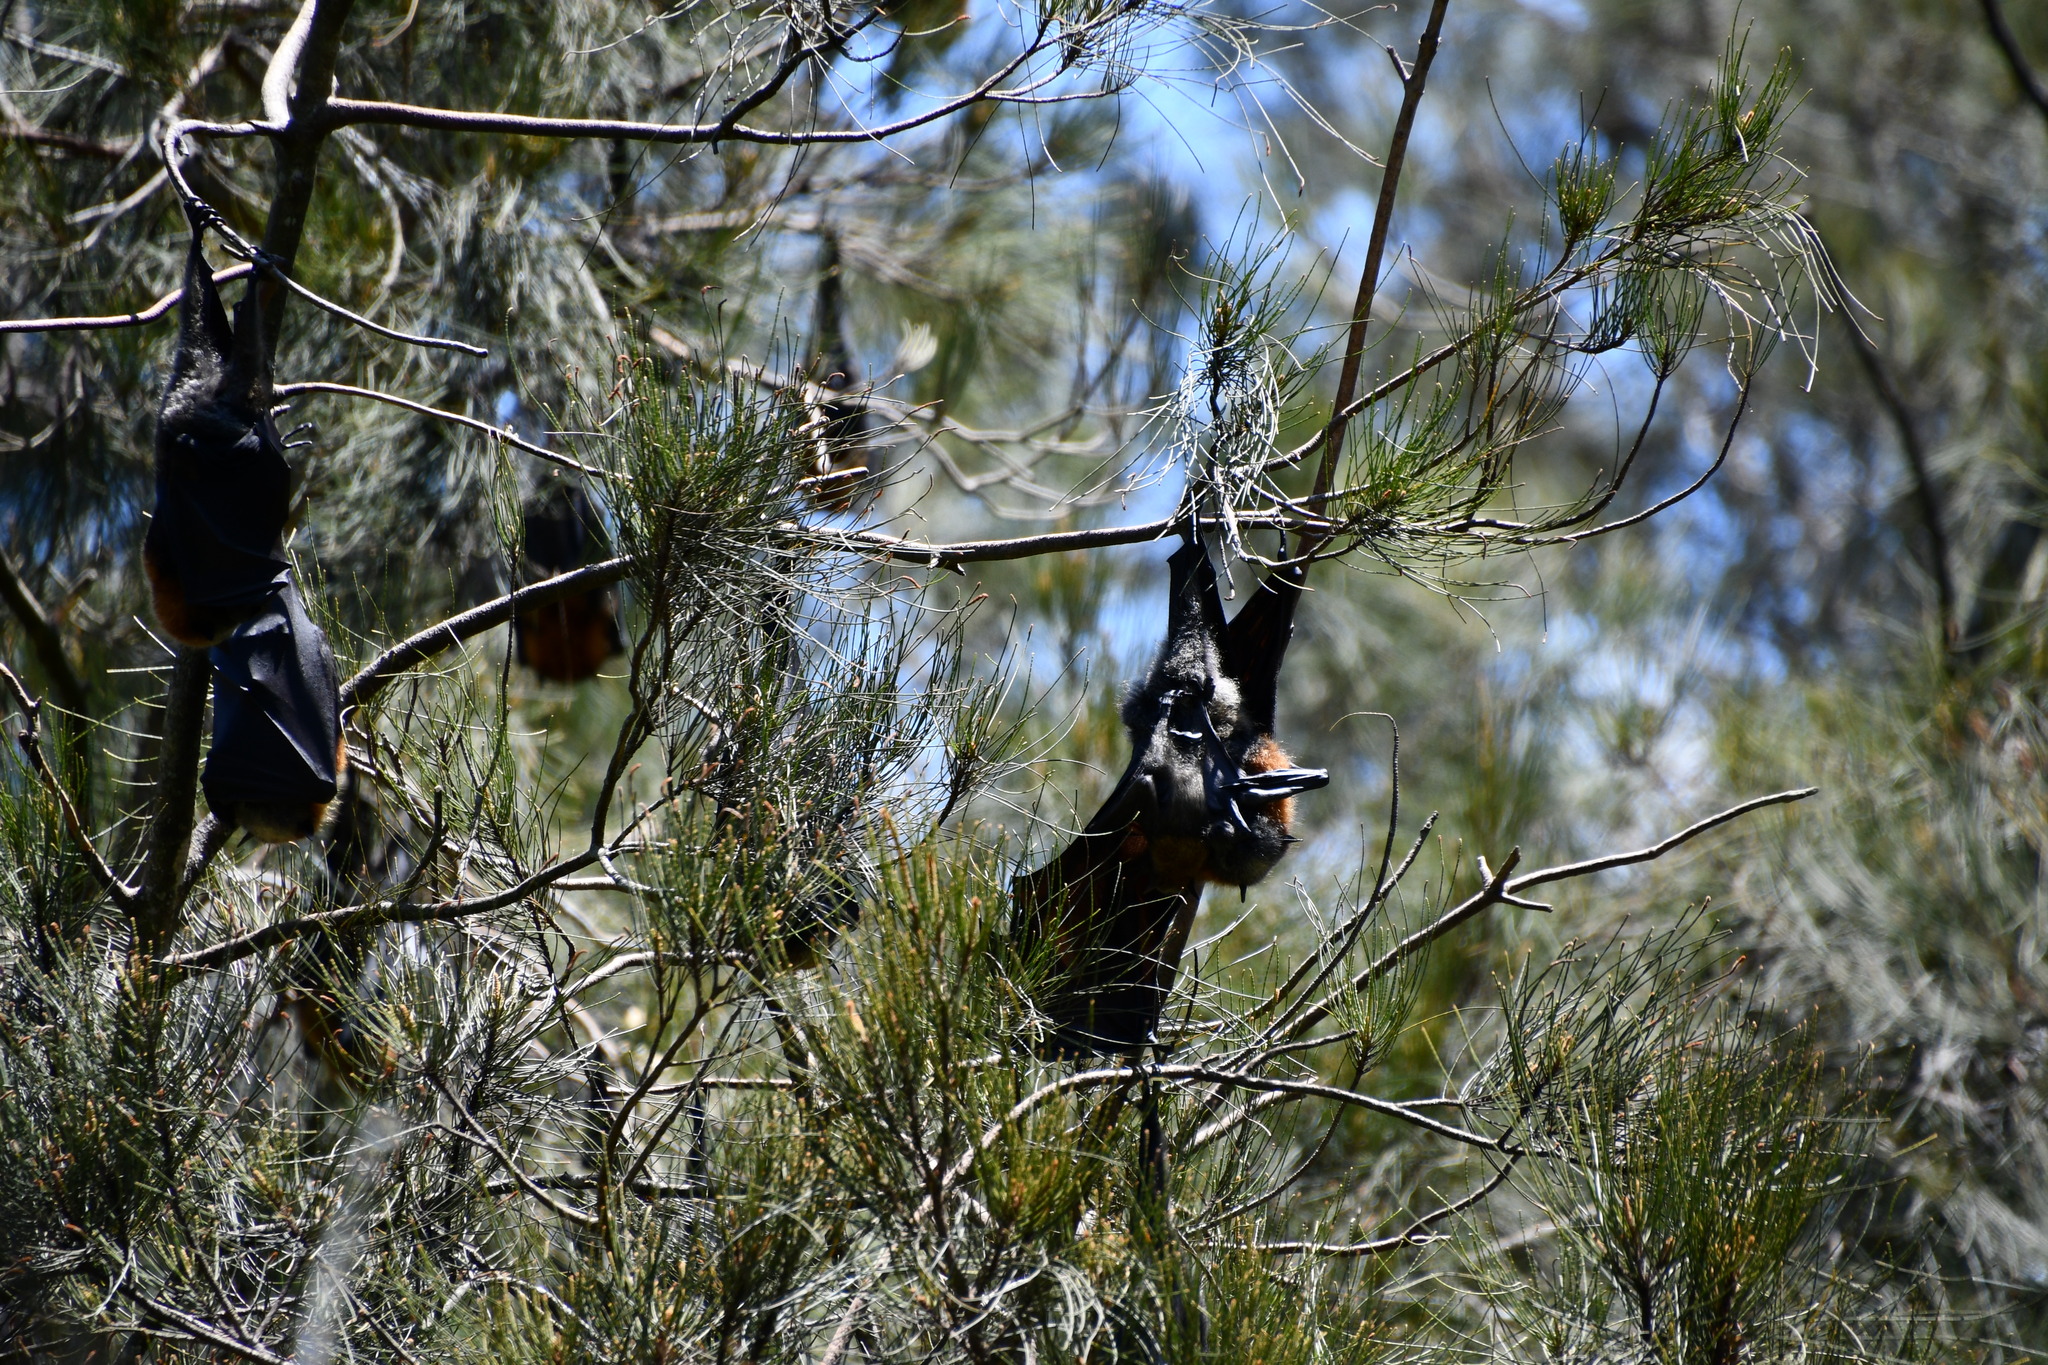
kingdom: Animalia
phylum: Chordata
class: Mammalia
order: Chiroptera
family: Pteropodidae
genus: Pteropus
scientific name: Pteropus poliocephalus
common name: Gray-headed flying fox
